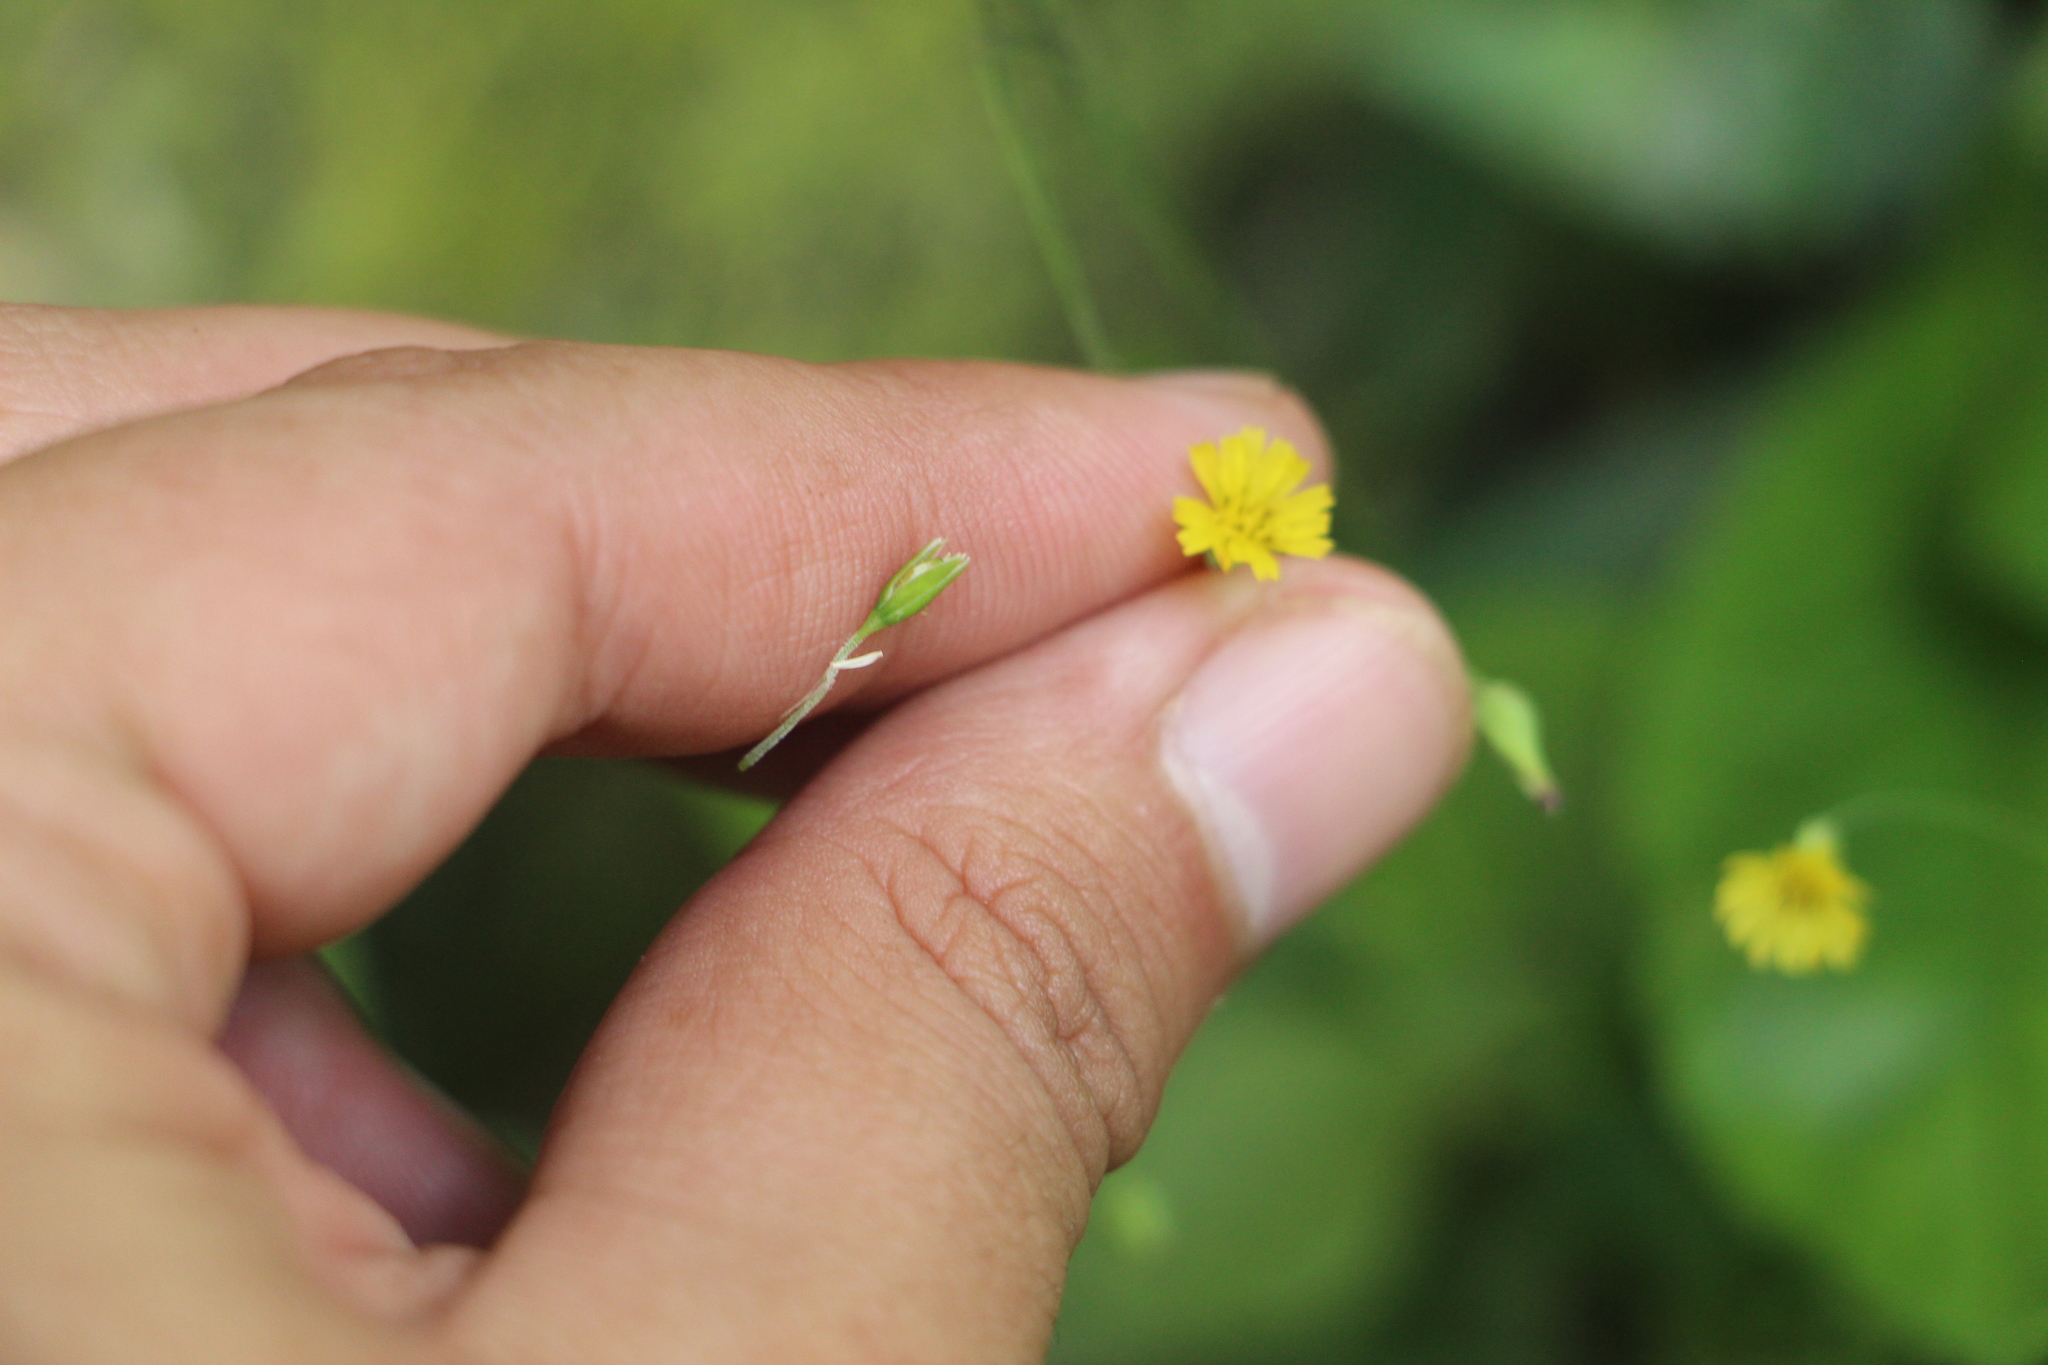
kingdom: Plantae
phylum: Tracheophyta
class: Magnoliopsida
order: Asterales
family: Asteraceae
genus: Youngia
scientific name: Youngia japonica
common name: Oriental false hawksbeard
